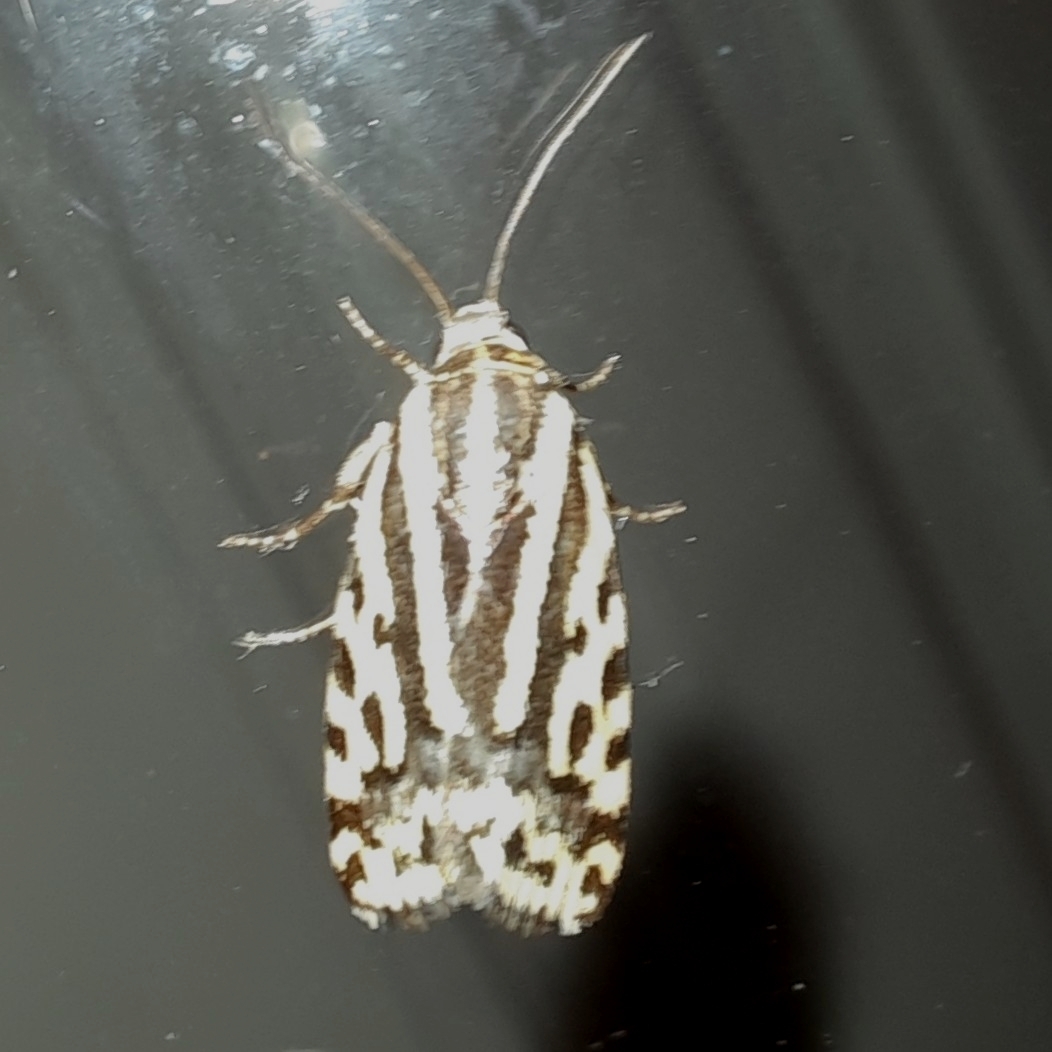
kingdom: Animalia
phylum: Arthropoda
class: Insecta
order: Lepidoptera
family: Noctuidae
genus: Acontia
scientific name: Acontia trabealis
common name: Spotted sulphur
